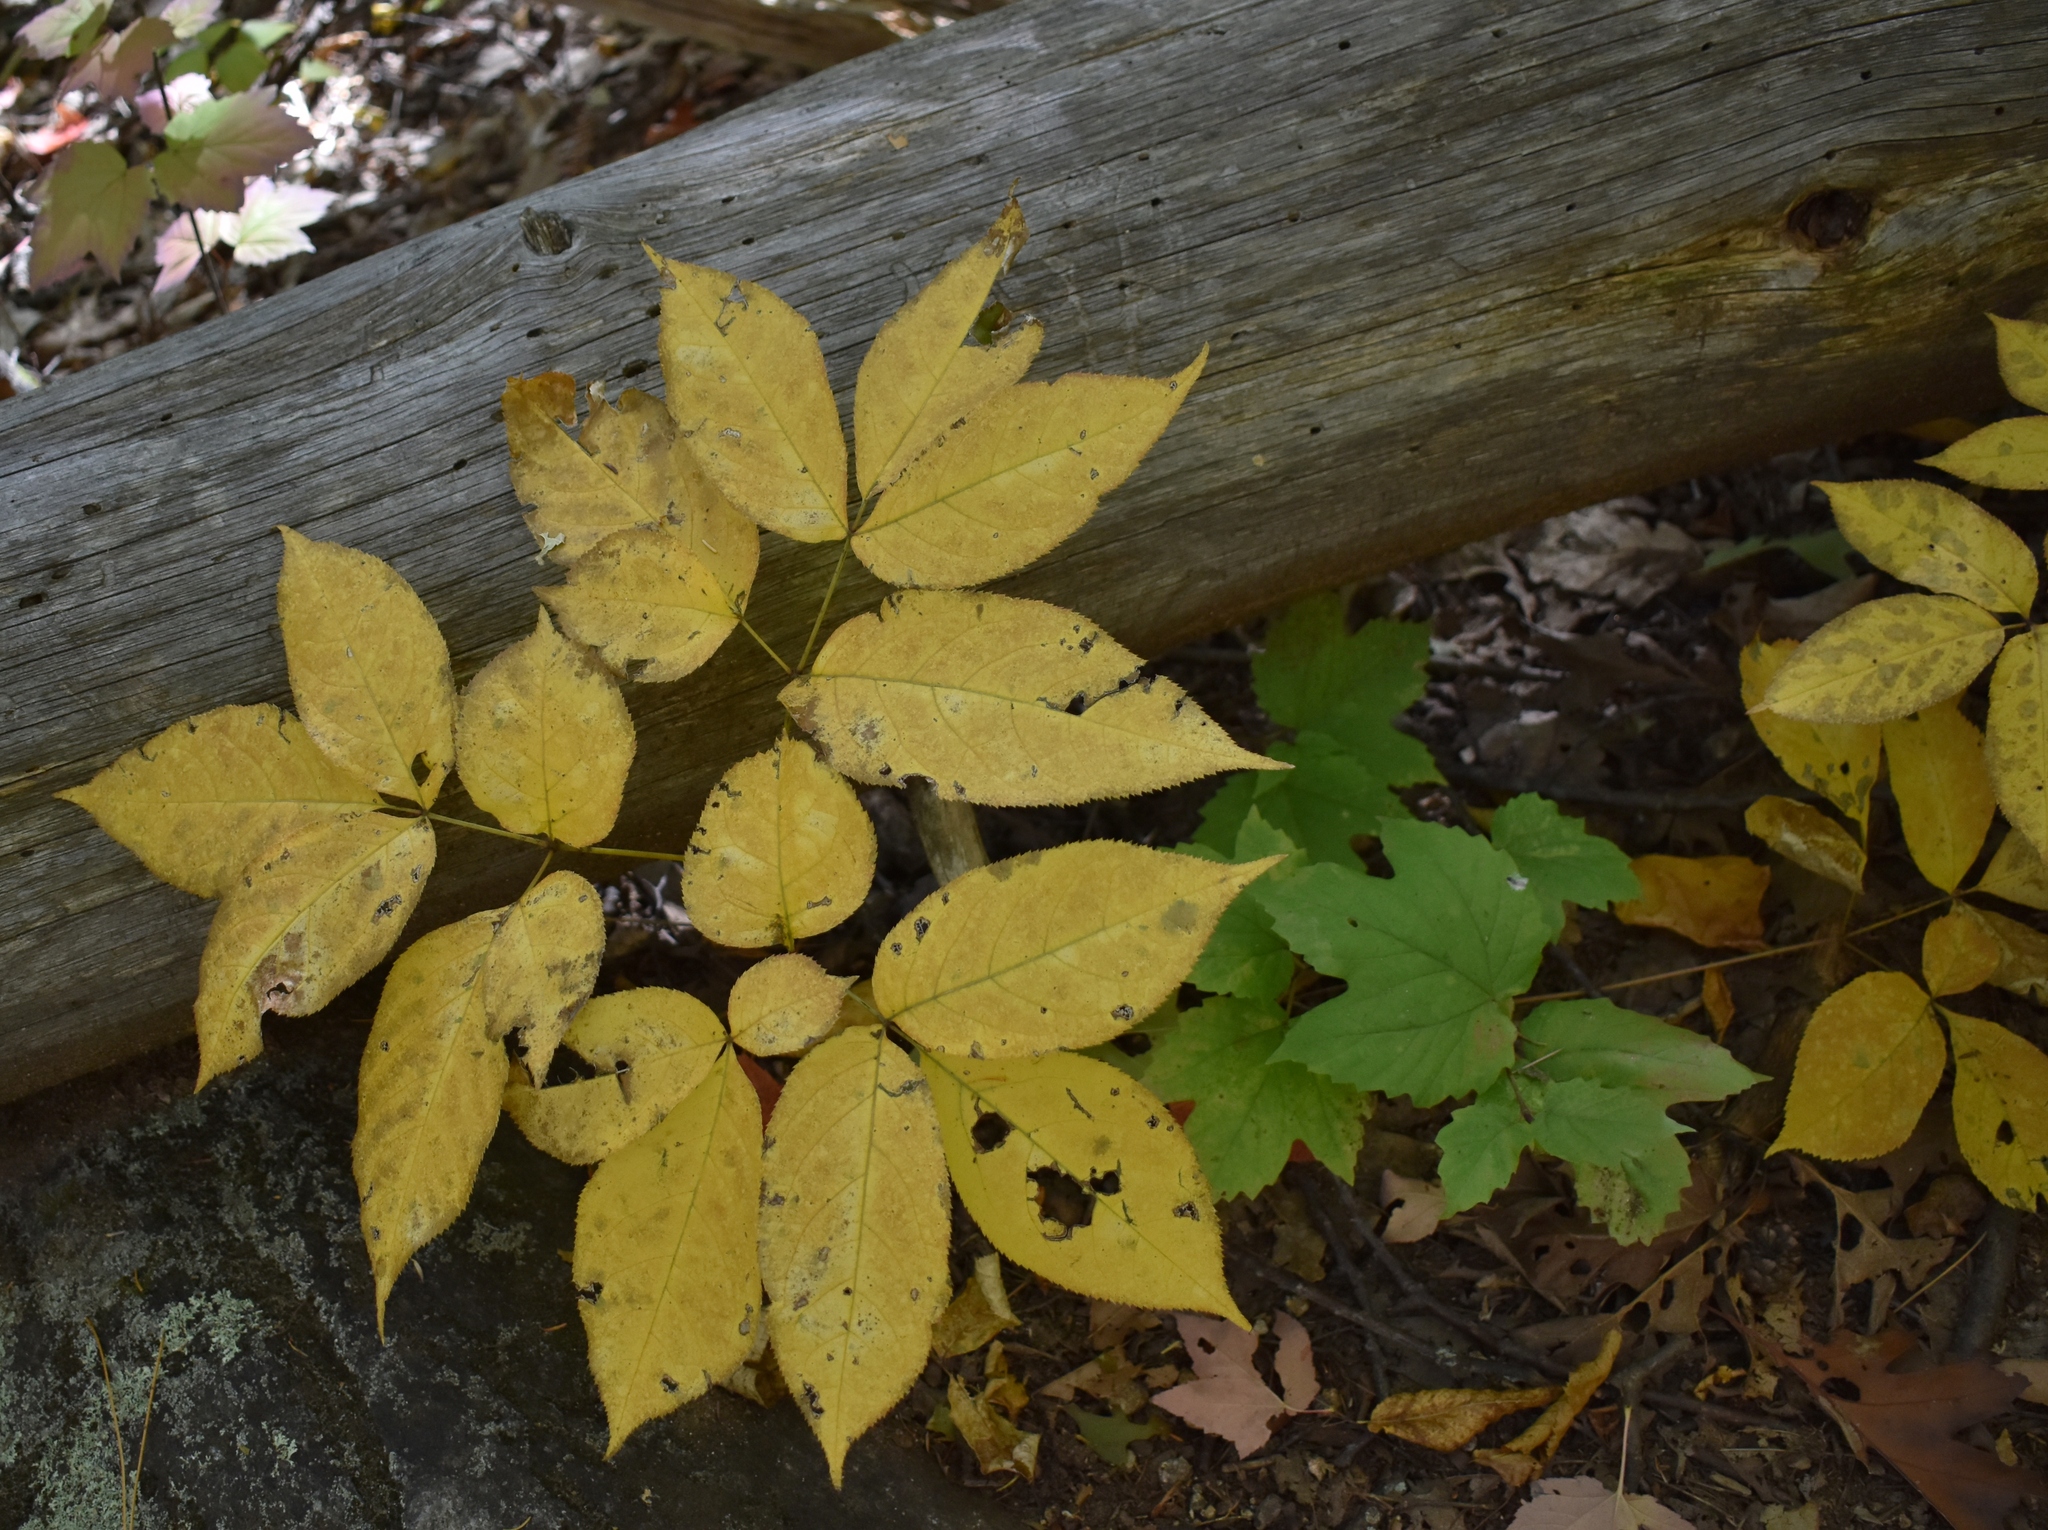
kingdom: Plantae
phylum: Tracheophyta
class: Magnoliopsida
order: Apiales
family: Araliaceae
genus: Aralia
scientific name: Aralia nudicaulis
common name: Wild sarsaparilla
